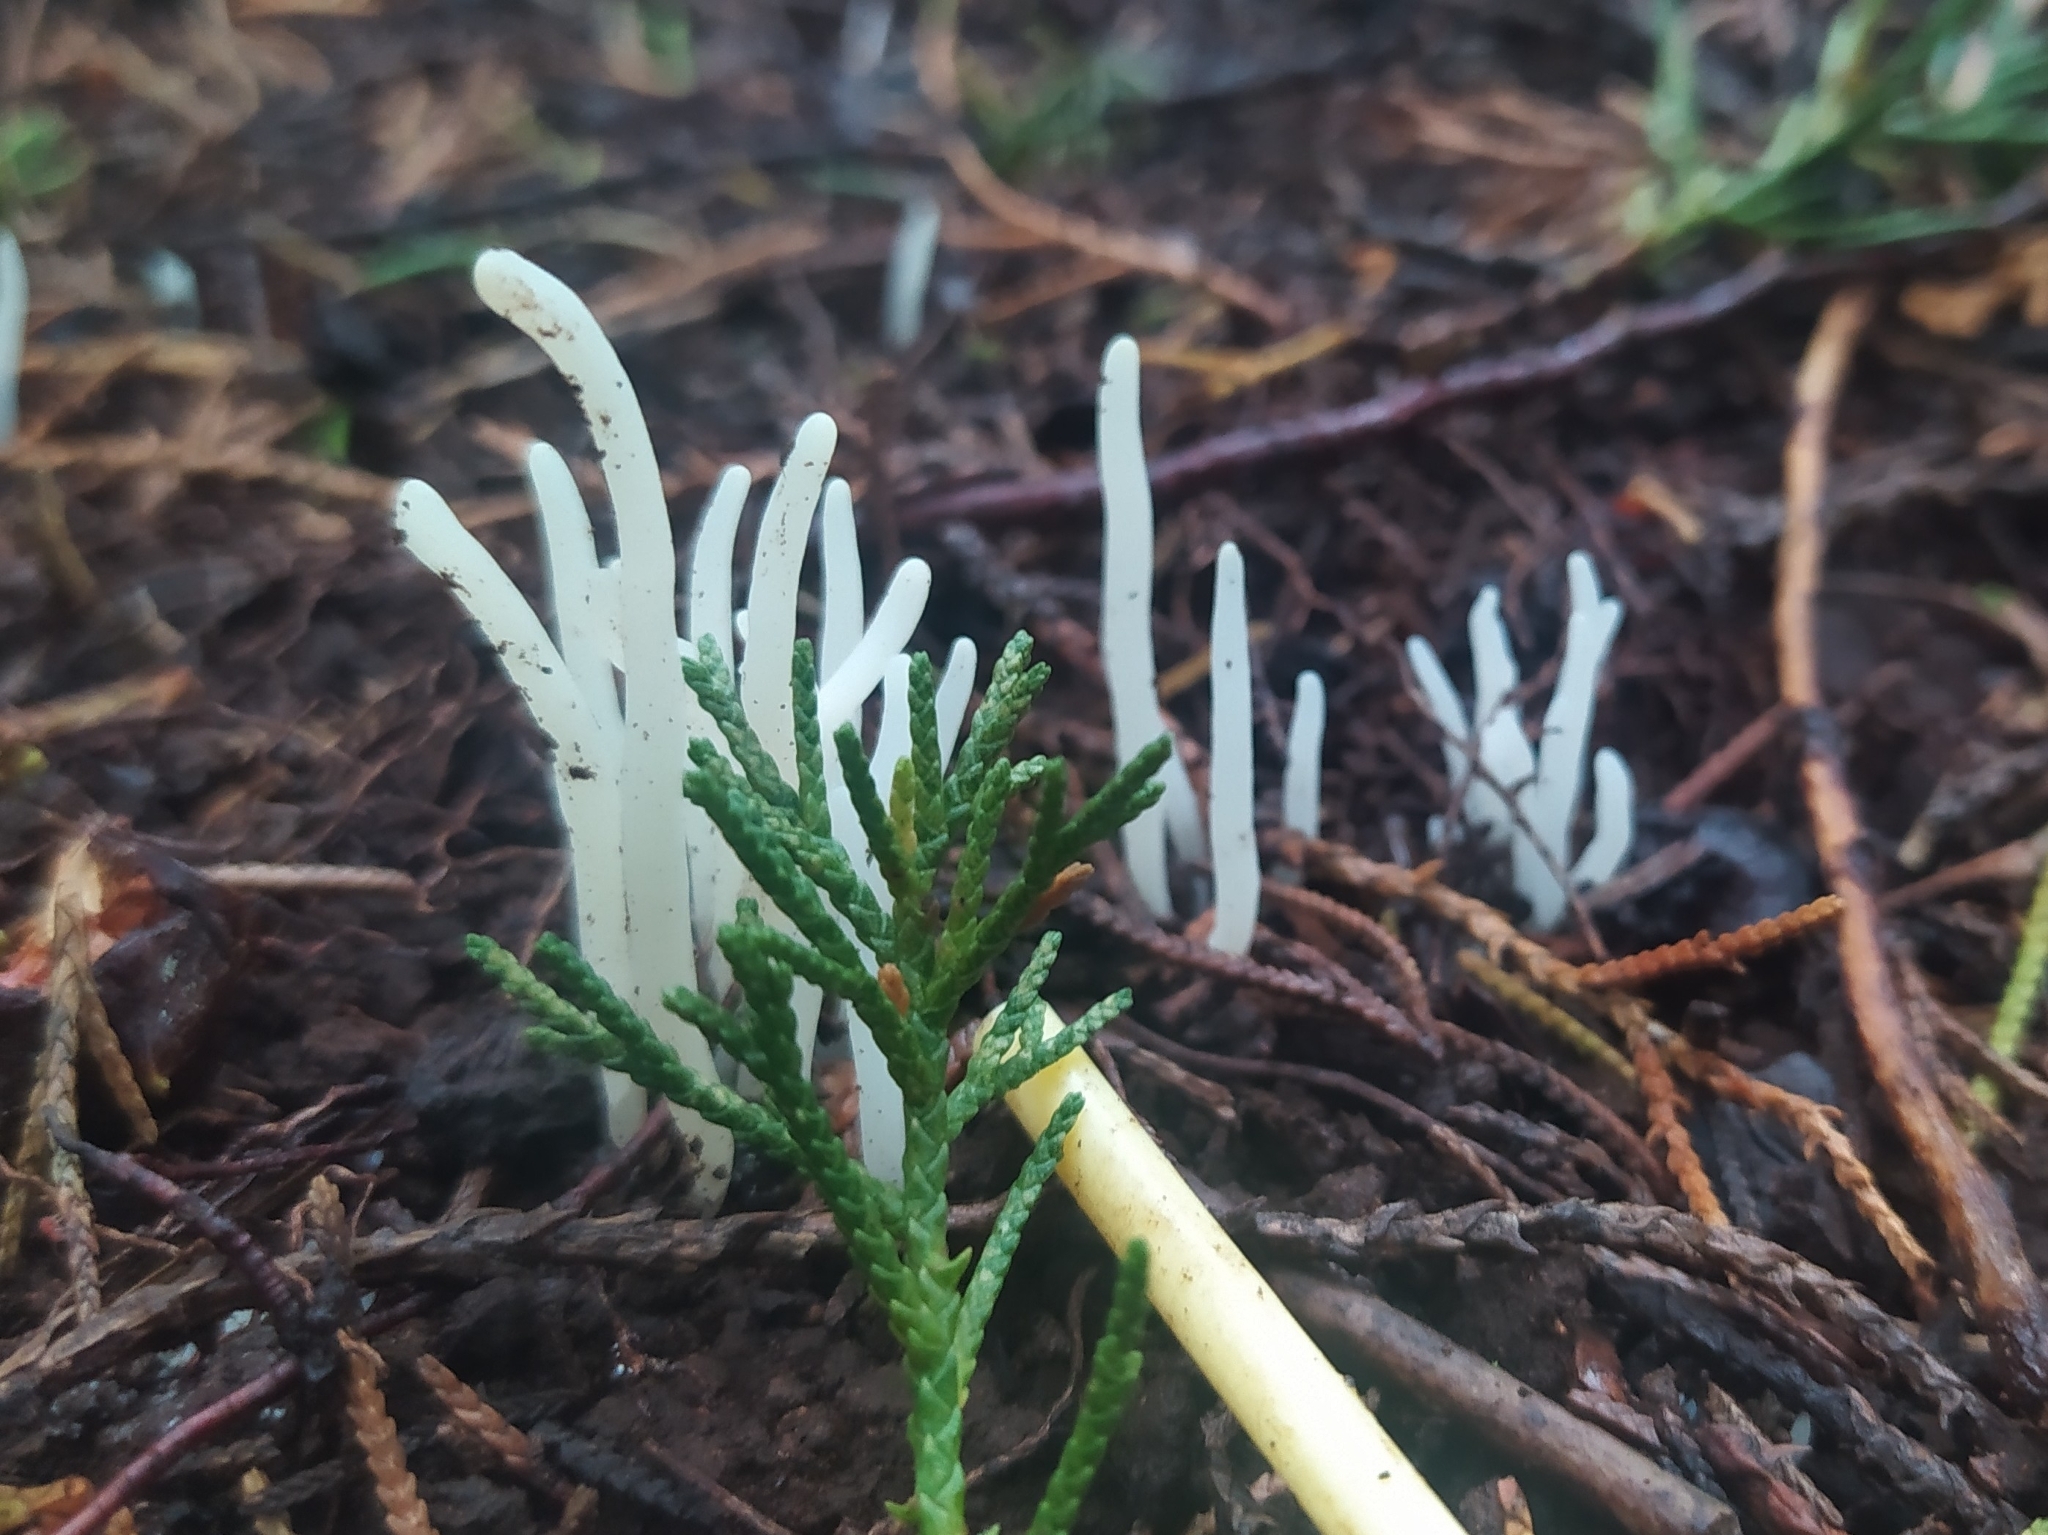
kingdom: Fungi
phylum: Basidiomycota
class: Agaricomycetes
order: Agaricales
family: Clavariaceae
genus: Clavaria
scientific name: Clavaria fragilis
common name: White spindles
